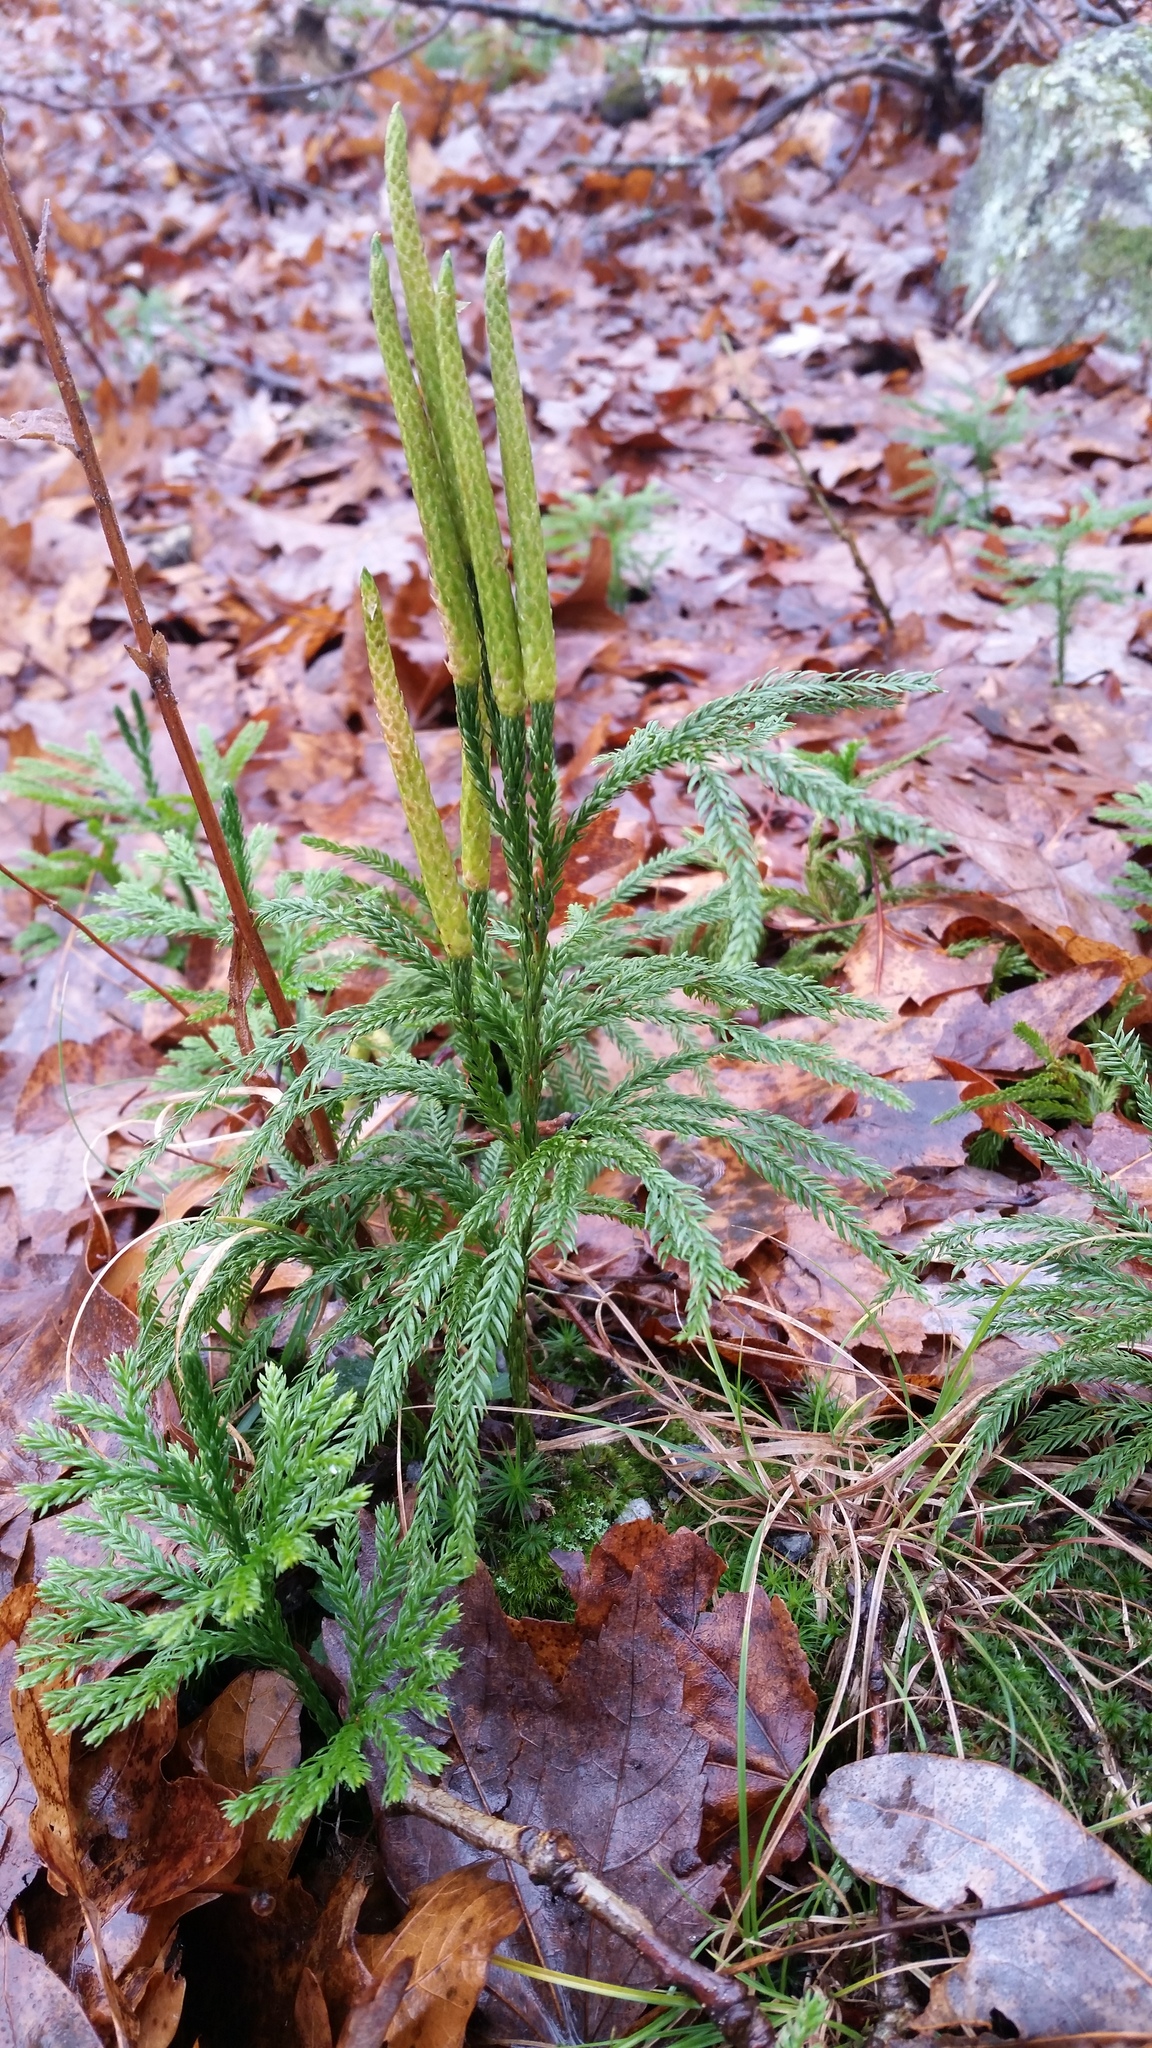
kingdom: Plantae
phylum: Tracheophyta
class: Lycopodiopsida
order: Lycopodiales
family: Lycopodiaceae
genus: Dendrolycopodium
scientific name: Dendrolycopodium obscurum
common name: Common ground-pine
